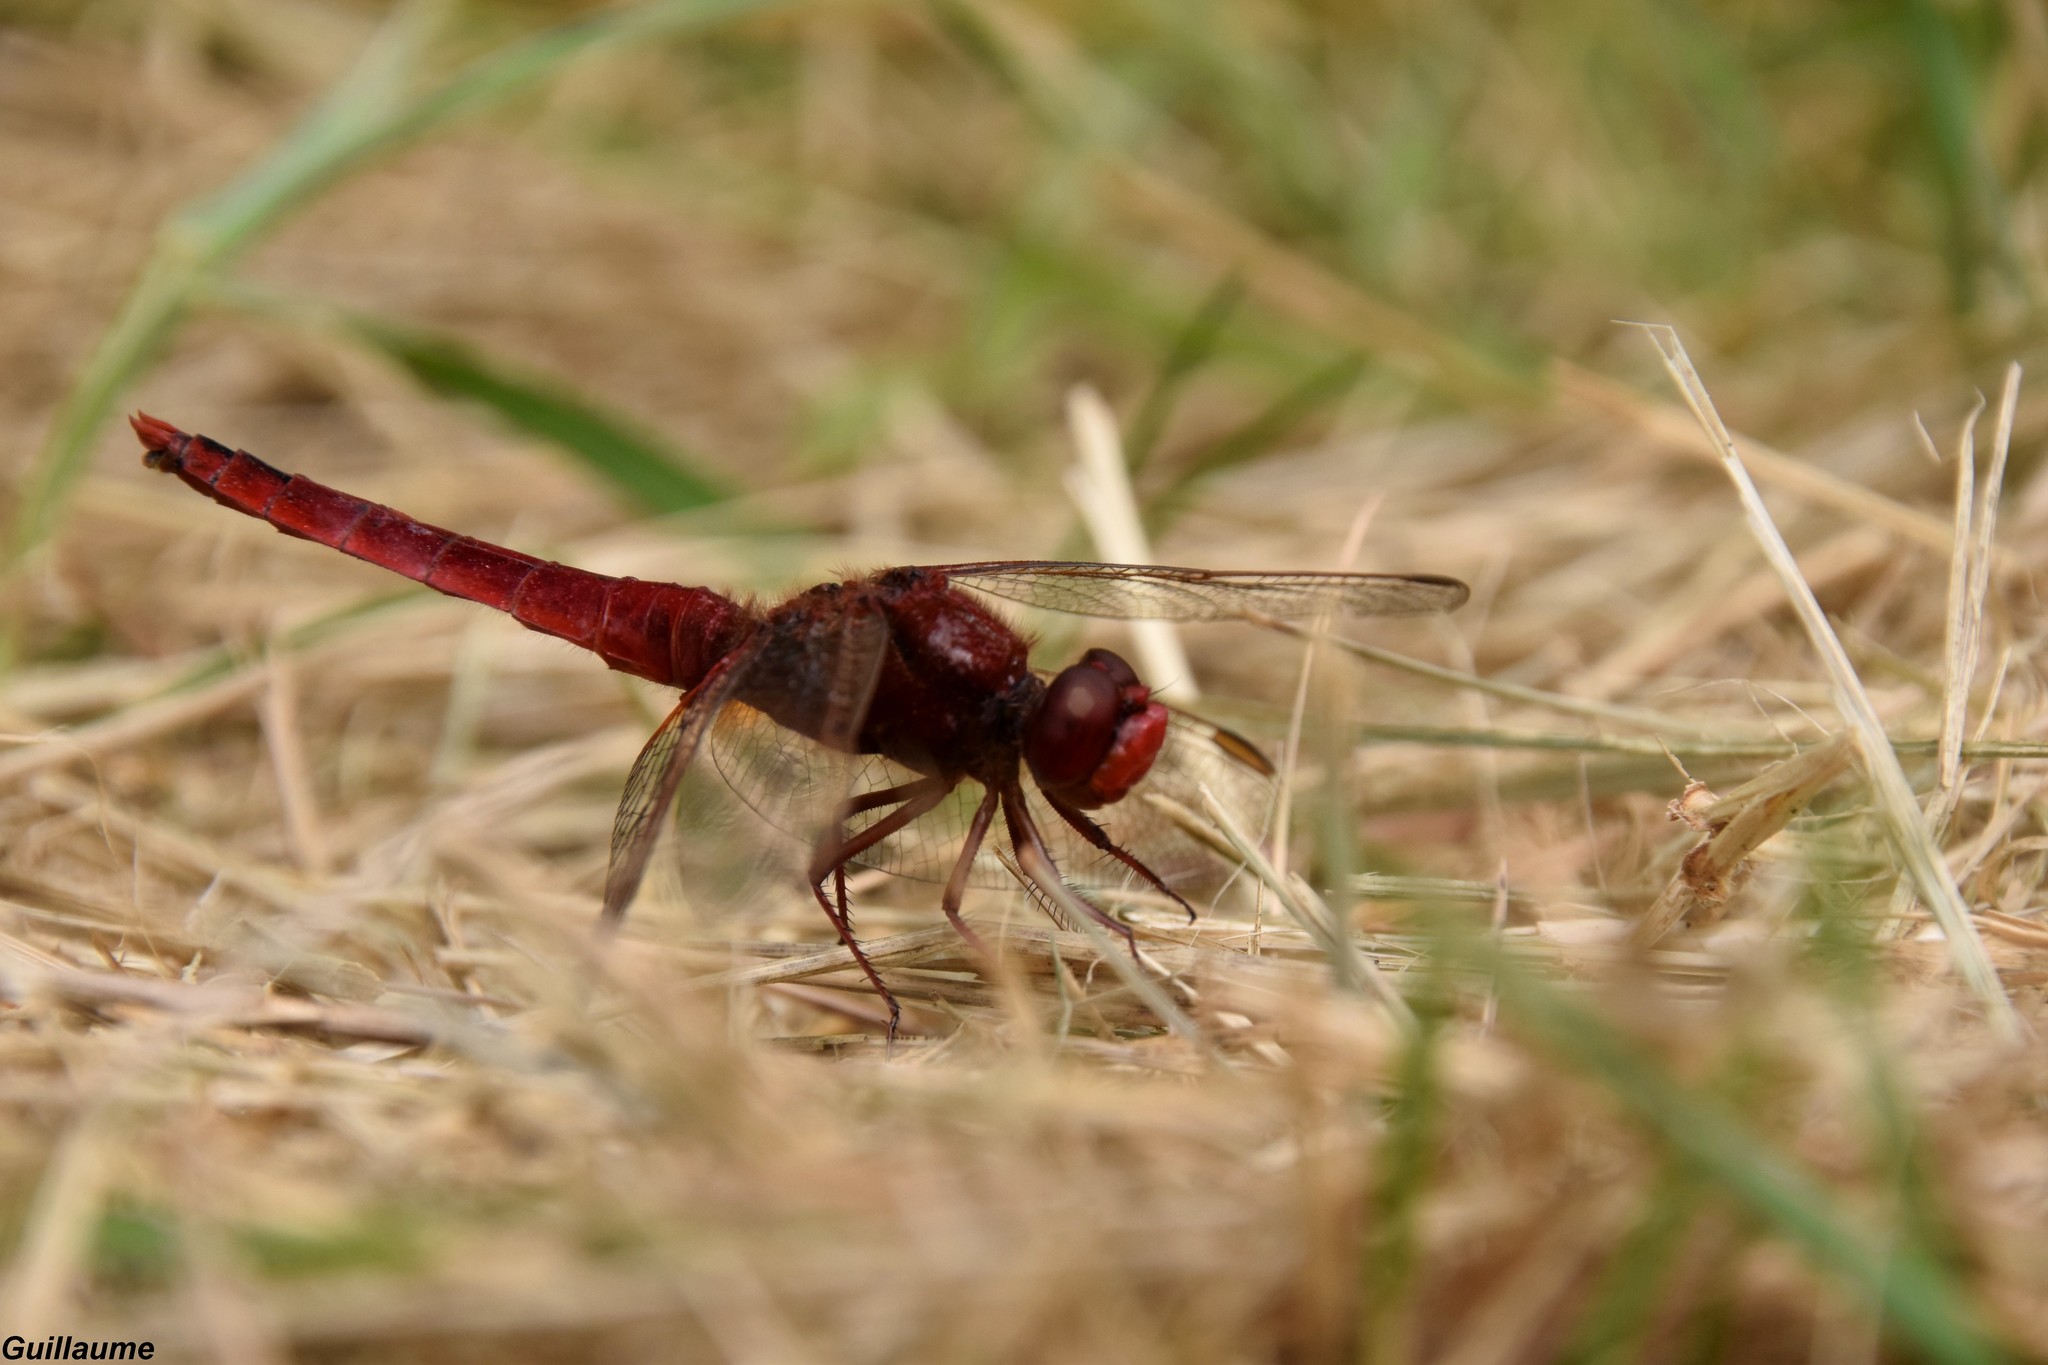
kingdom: Animalia
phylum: Arthropoda
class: Insecta
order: Odonata
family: Libellulidae
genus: Crocothemis
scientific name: Crocothemis erythraea
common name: Scarlet dragonfly
